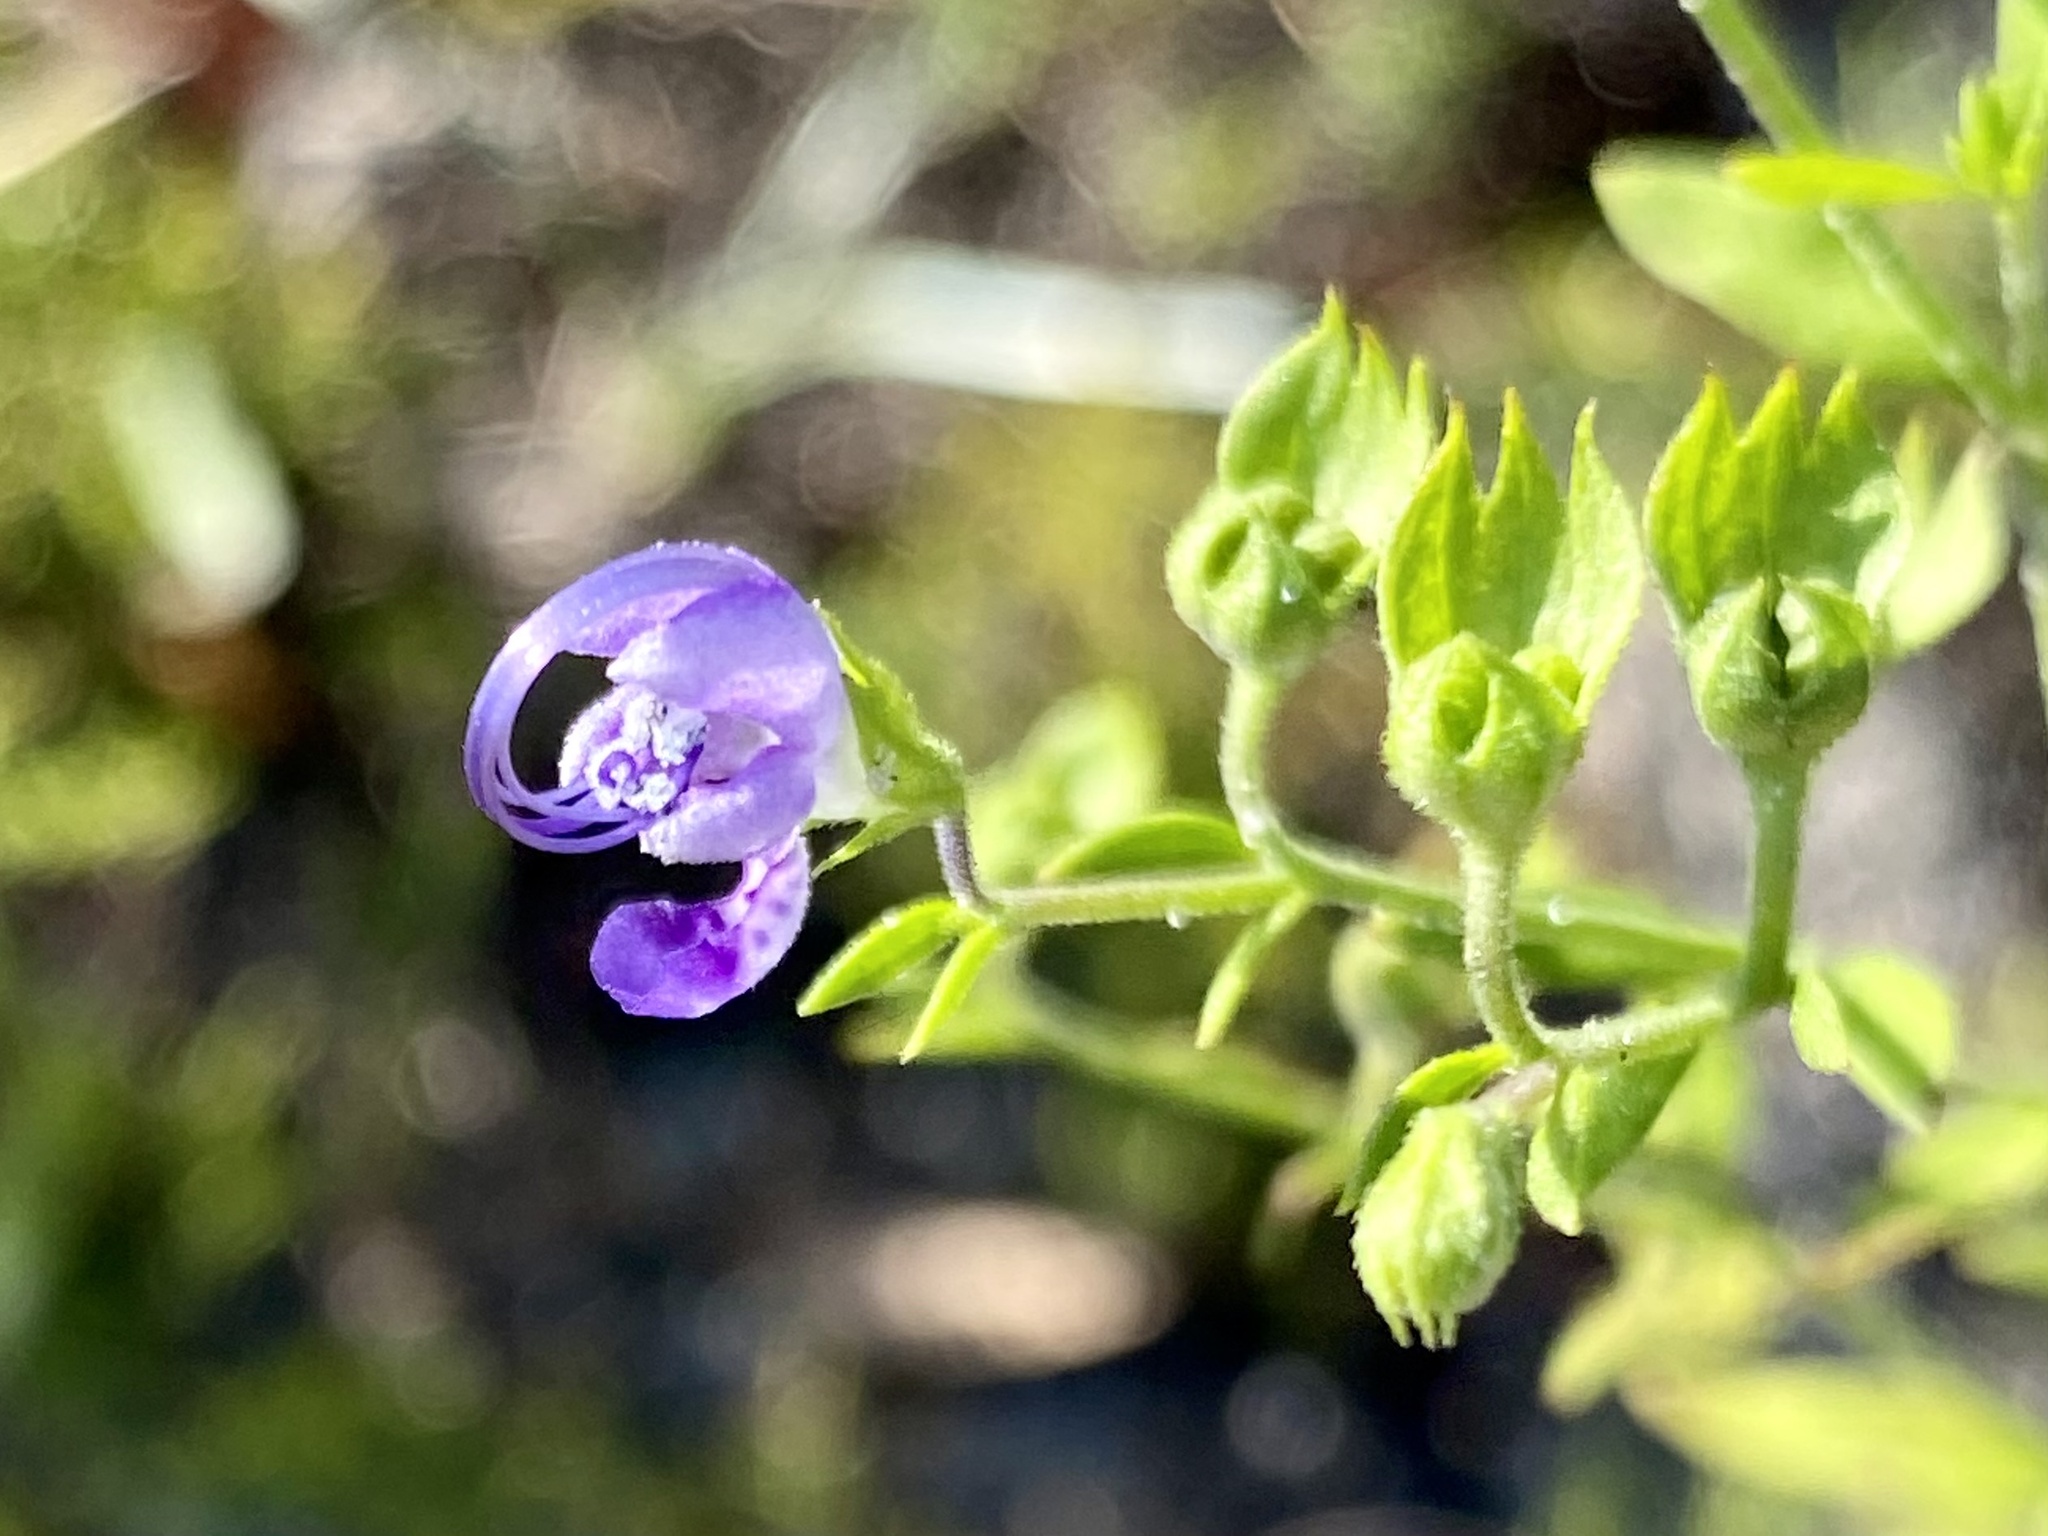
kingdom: Plantae
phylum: Tracheophyta
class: Magnoliopsida
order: Lamiales
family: Lamiaceae
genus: Trichostema
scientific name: Trichostema dichotomum
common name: Bastard pennyroyal
